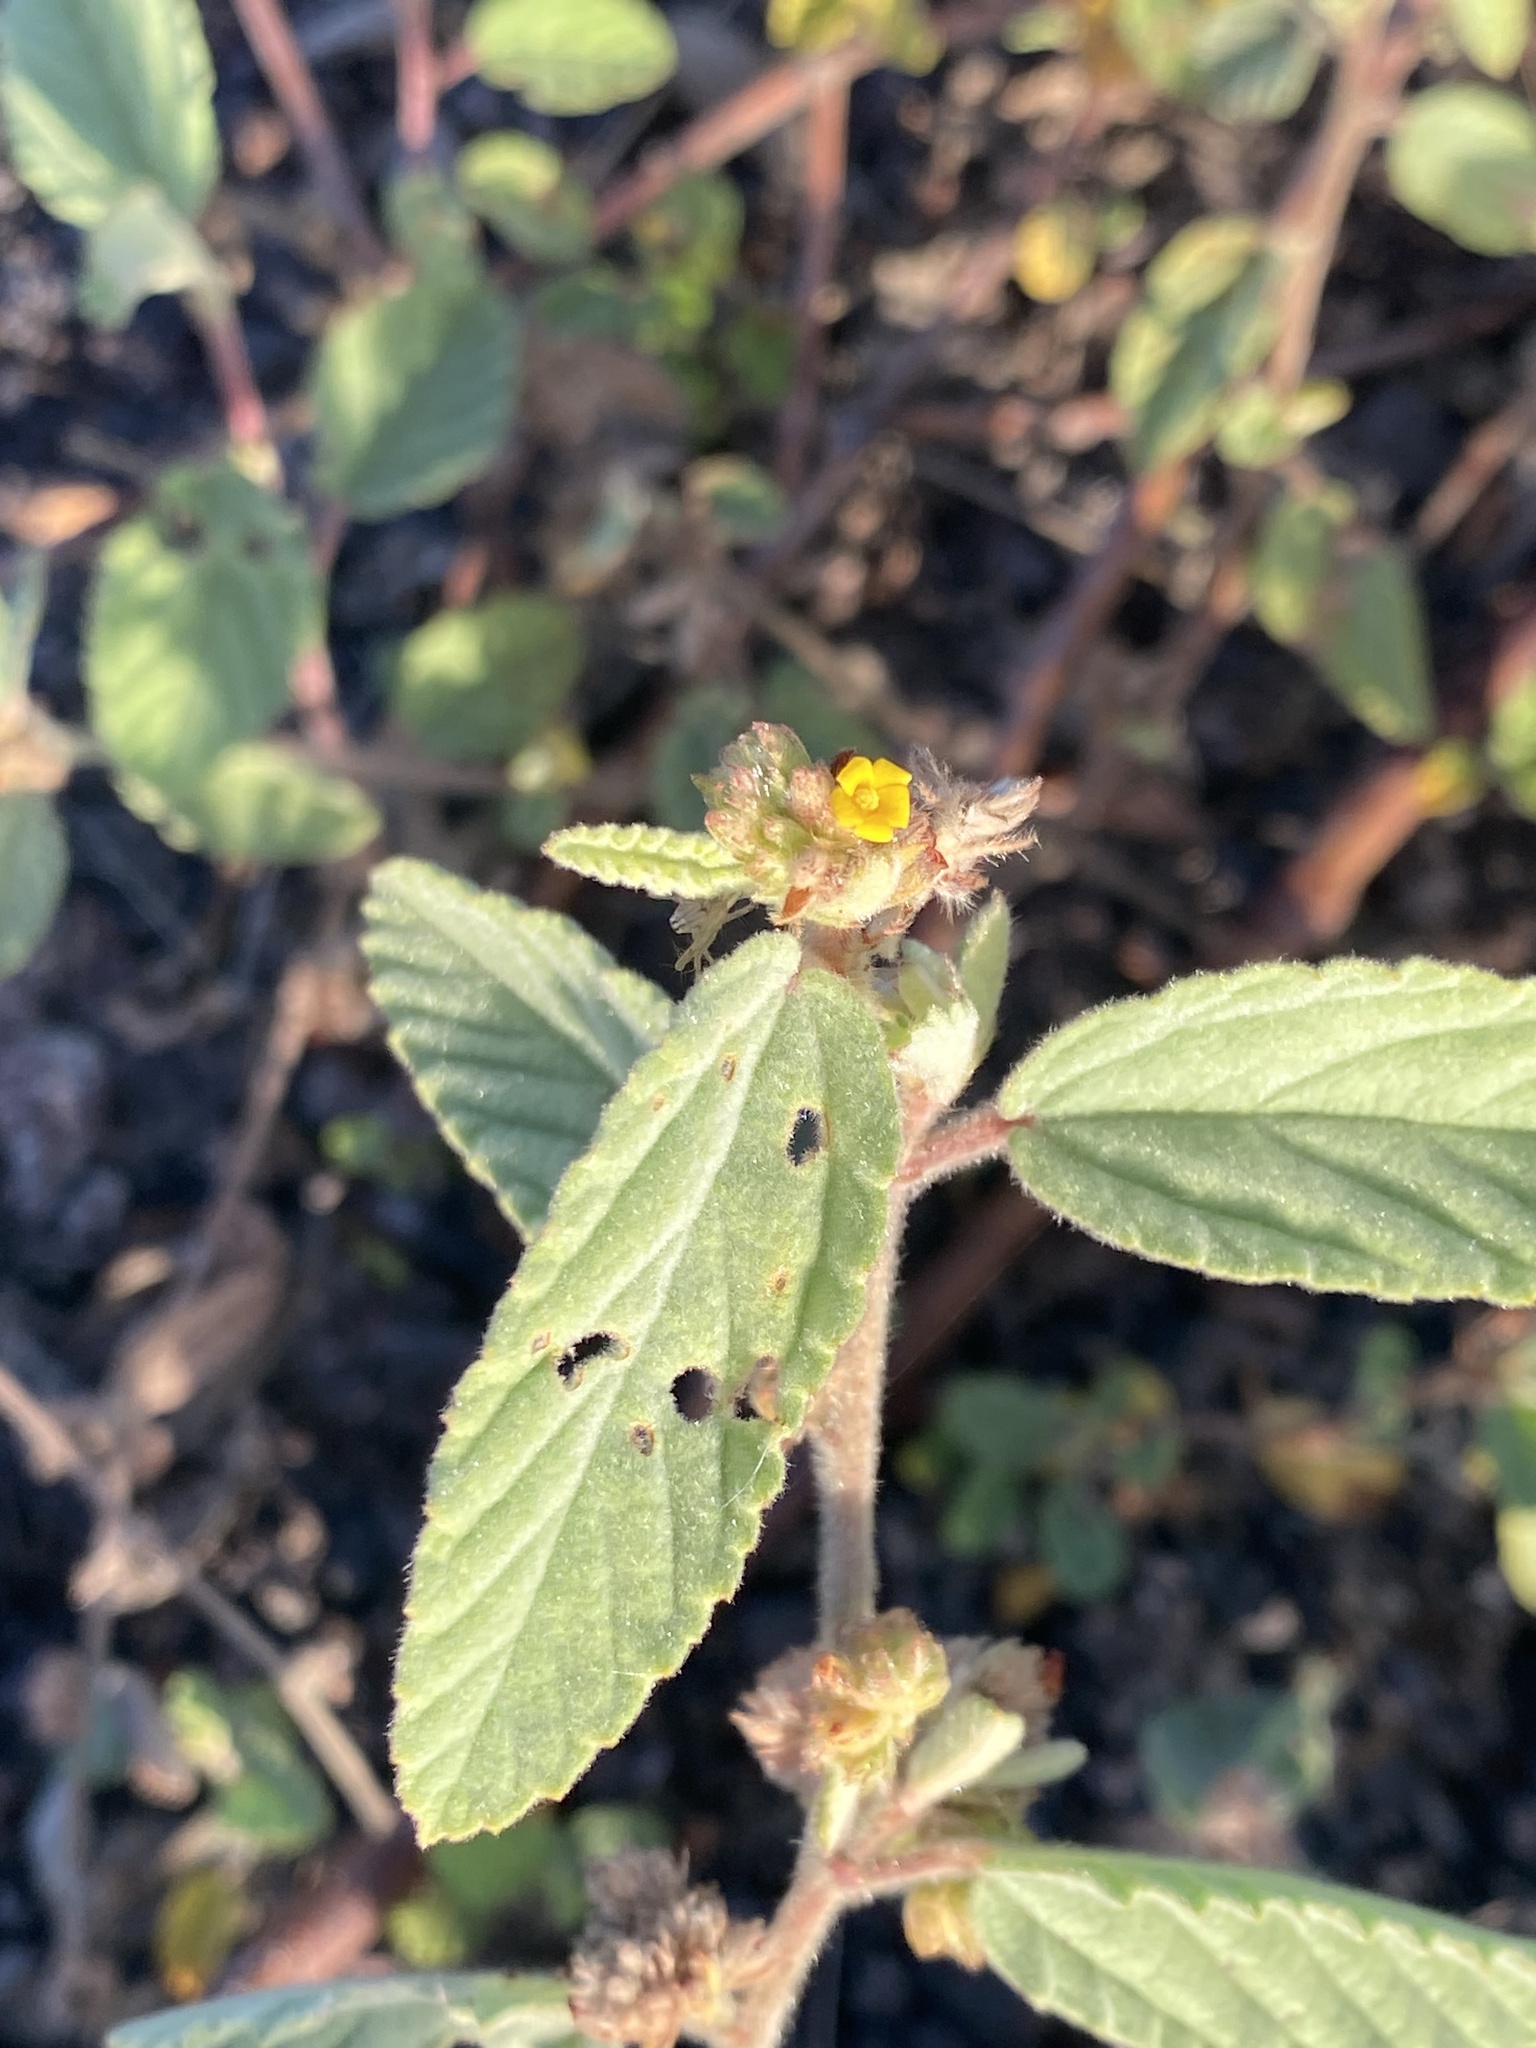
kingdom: Plantae
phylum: Tracheophyta
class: Magnoliopsida
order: Malvales
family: Malvaceae
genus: Waltheria
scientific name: Waltheria indica
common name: Leather-coat
